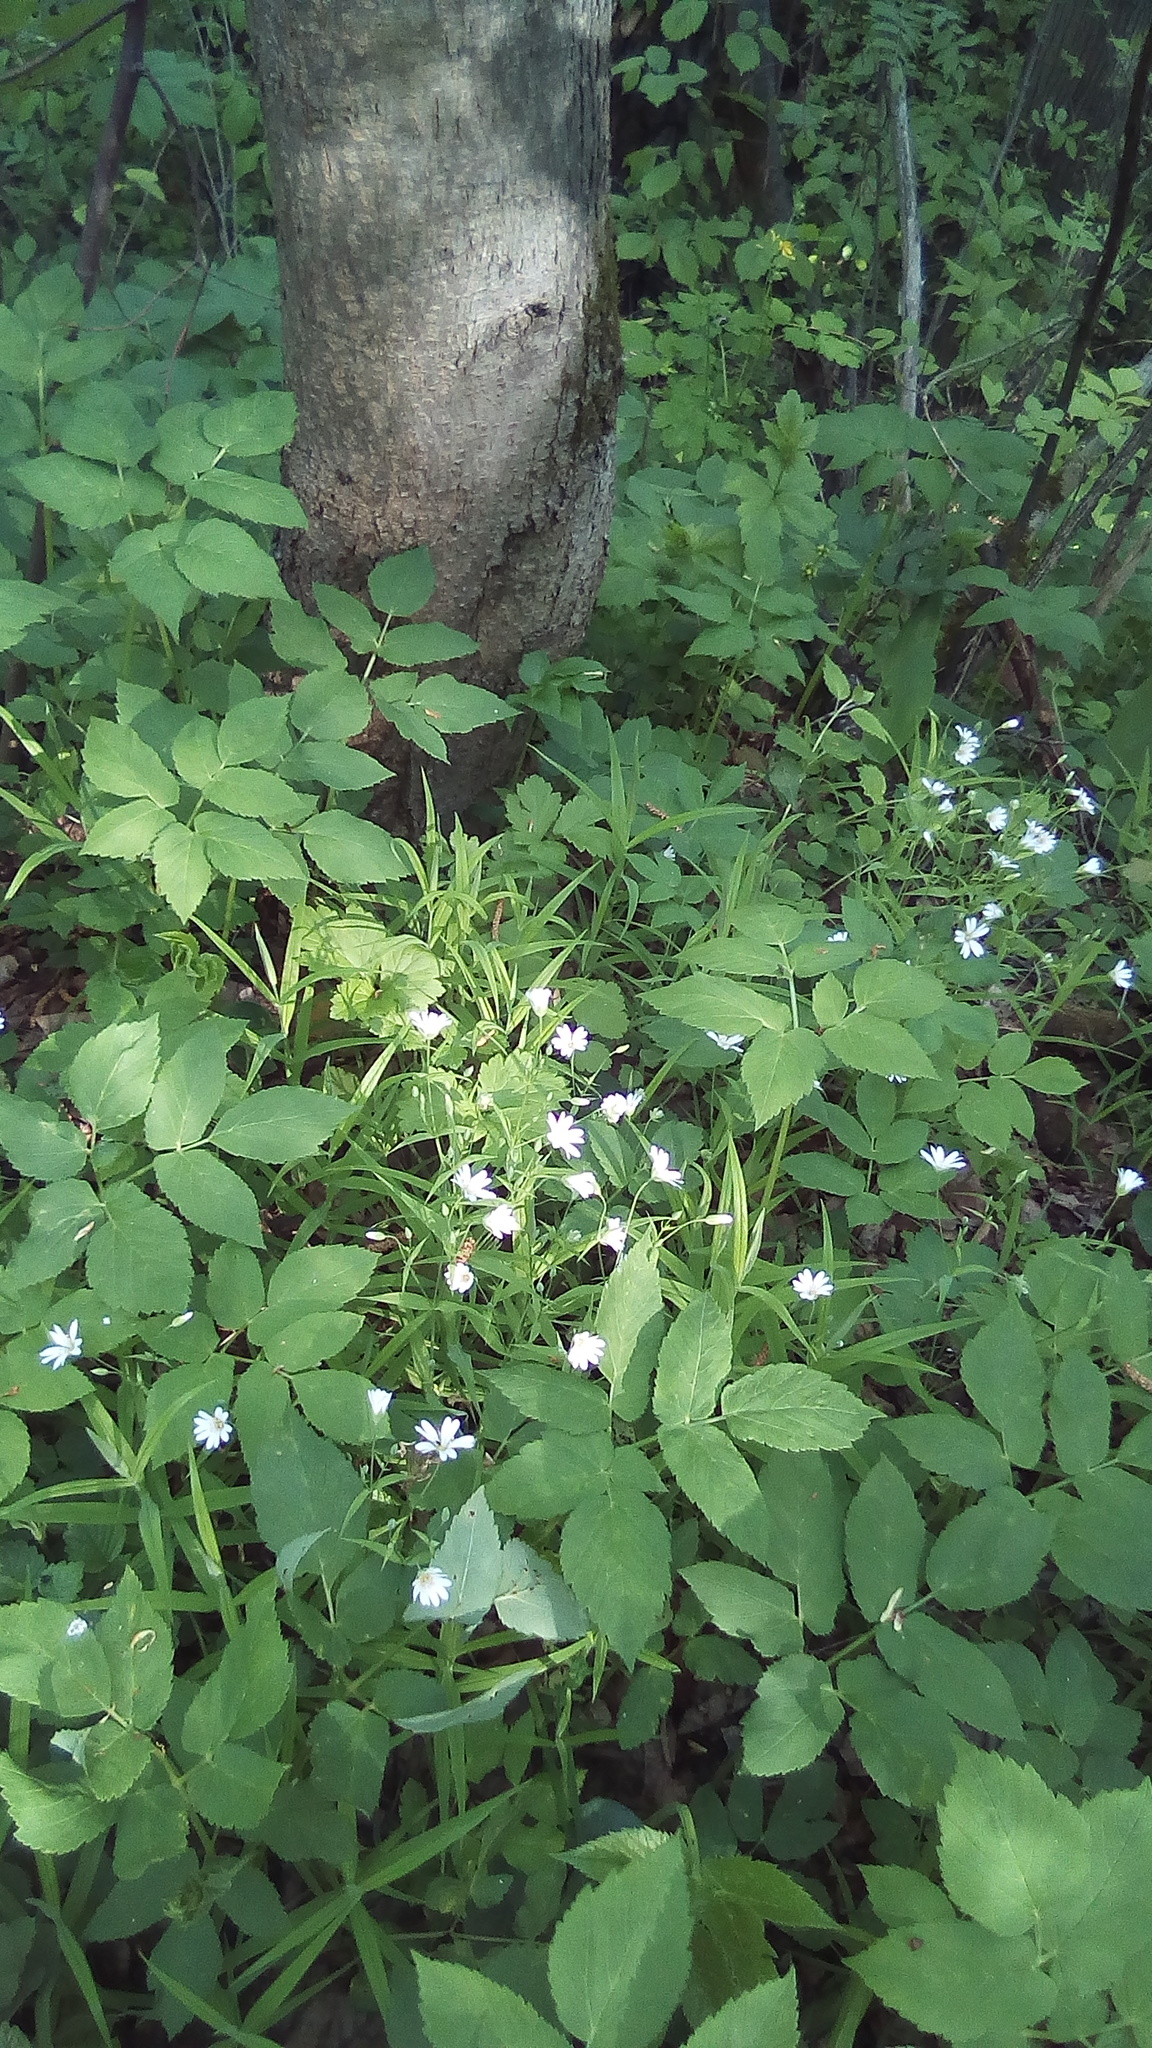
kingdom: Plantae
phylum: Tracheophyta
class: Magnoliopsida
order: Caryophyllales
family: Caryophyllaceae
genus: Rabelera
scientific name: Rabelera holostea
